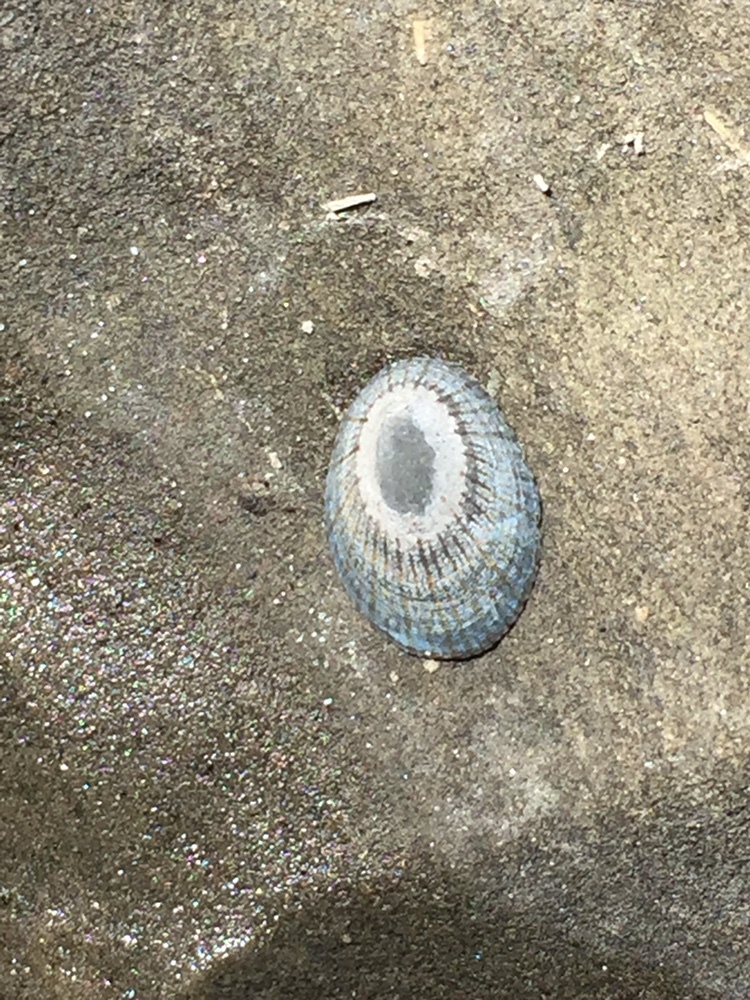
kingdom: Animalia
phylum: Mollusca
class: Gastropoda
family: Nacellidae
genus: Cellana
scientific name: Cellana radians
